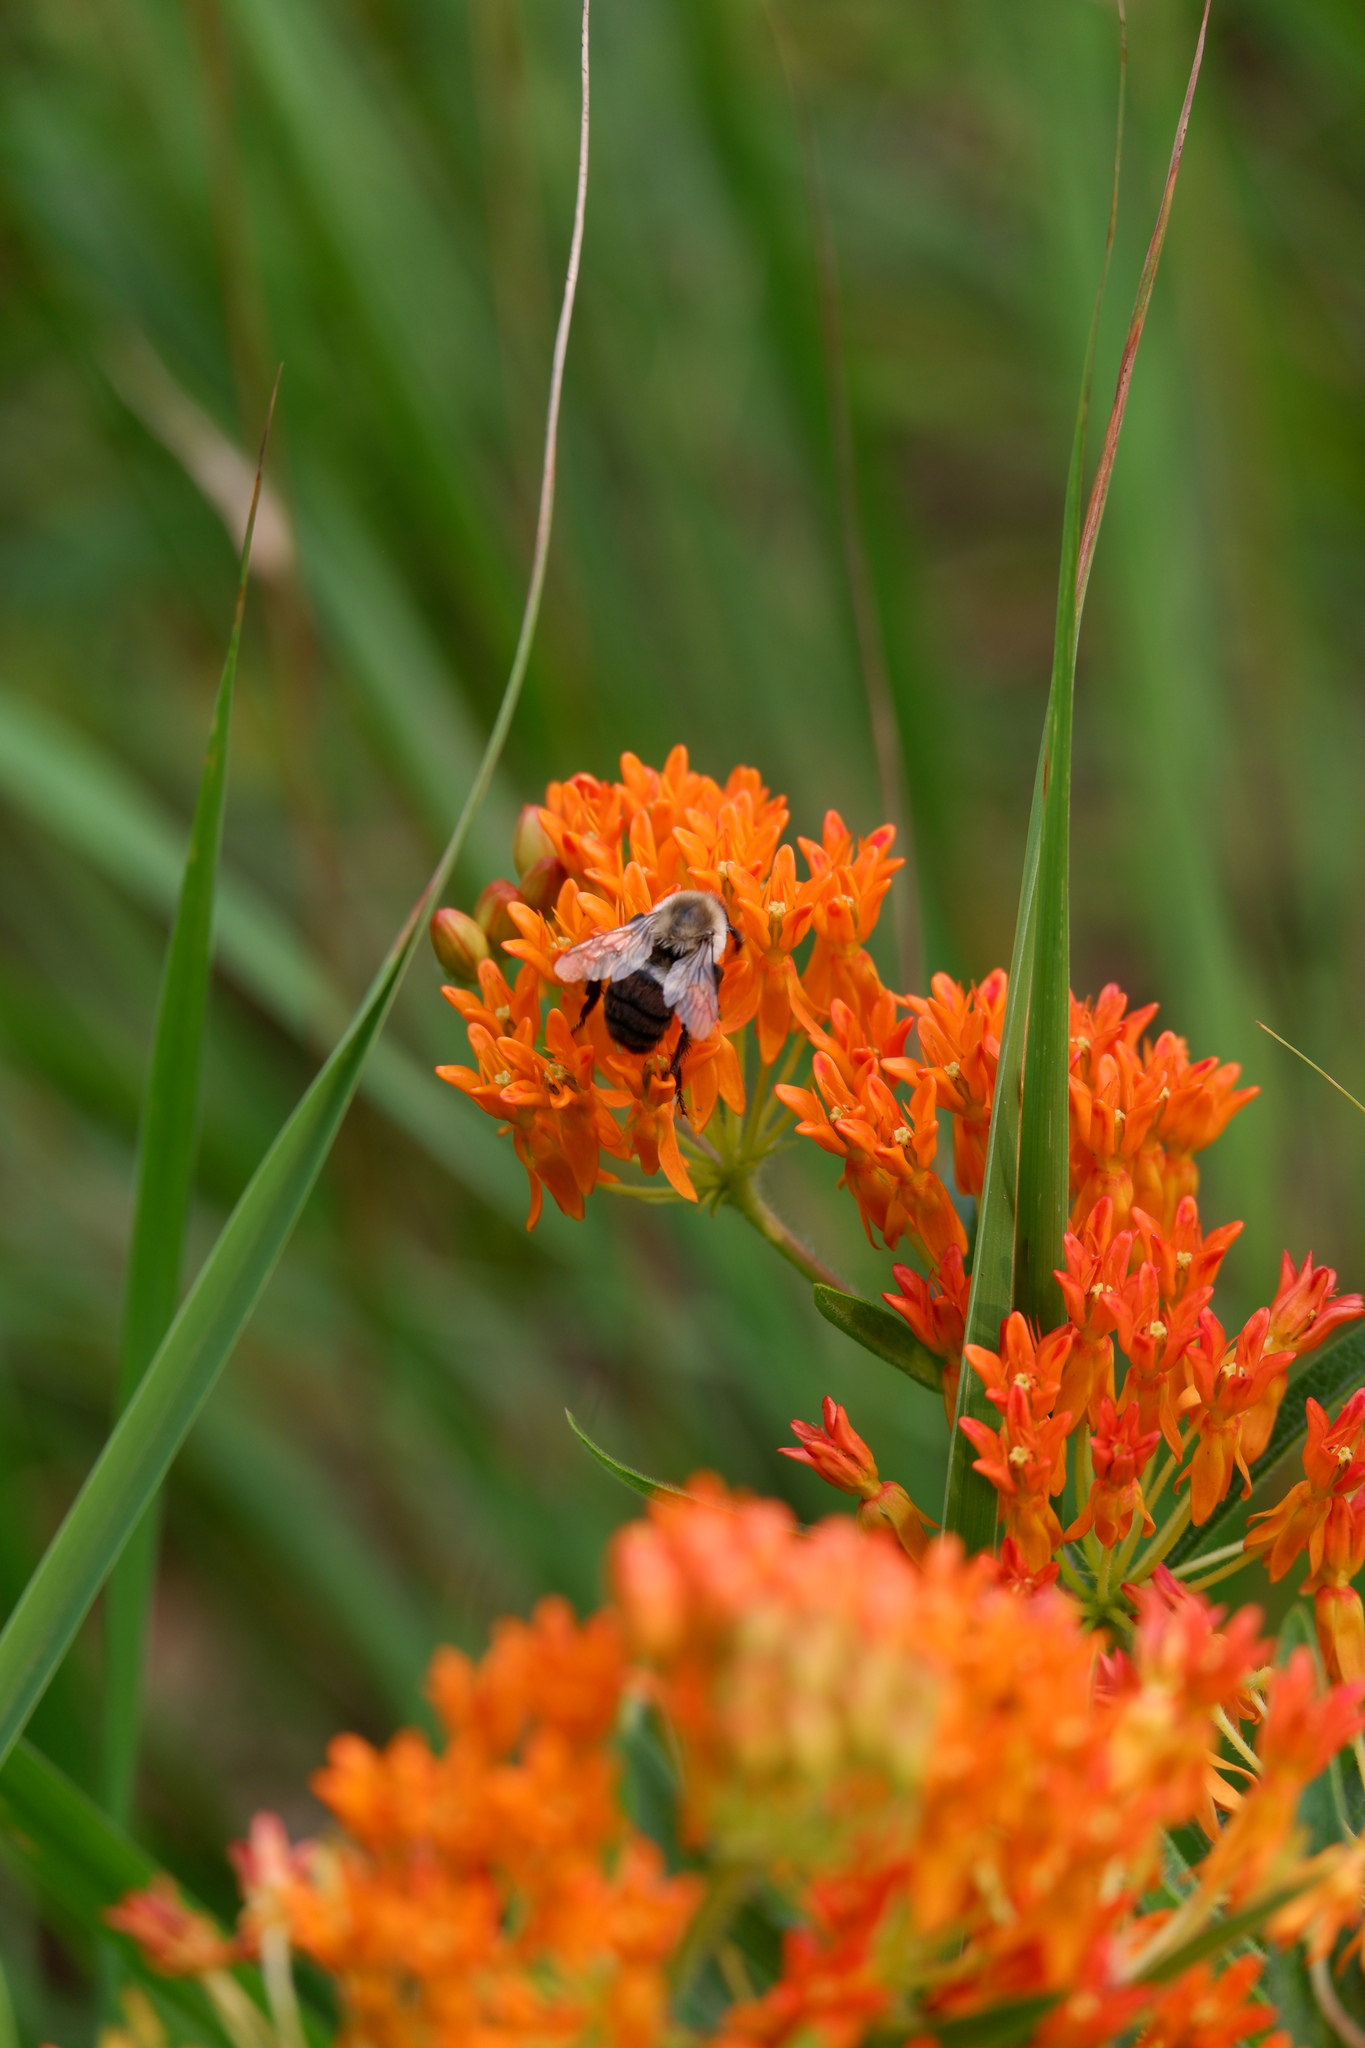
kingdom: Animalia
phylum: Arthropoda
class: Insecta
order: Hymenoptera
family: Apidae
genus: Bombus
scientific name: Bombus impatiens
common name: Common eastern bumble bee
